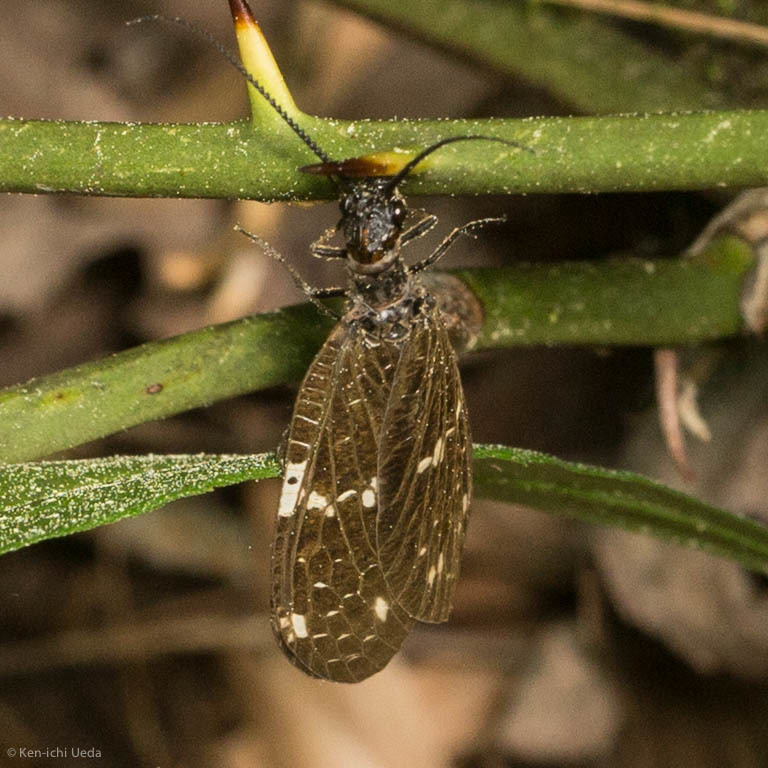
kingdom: Animalia
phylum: Arthropoda
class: Insecta
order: Megaloptera
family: Corydalidae
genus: Nigronia
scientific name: Nigronia serricornis
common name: Serrate dark fishfly
